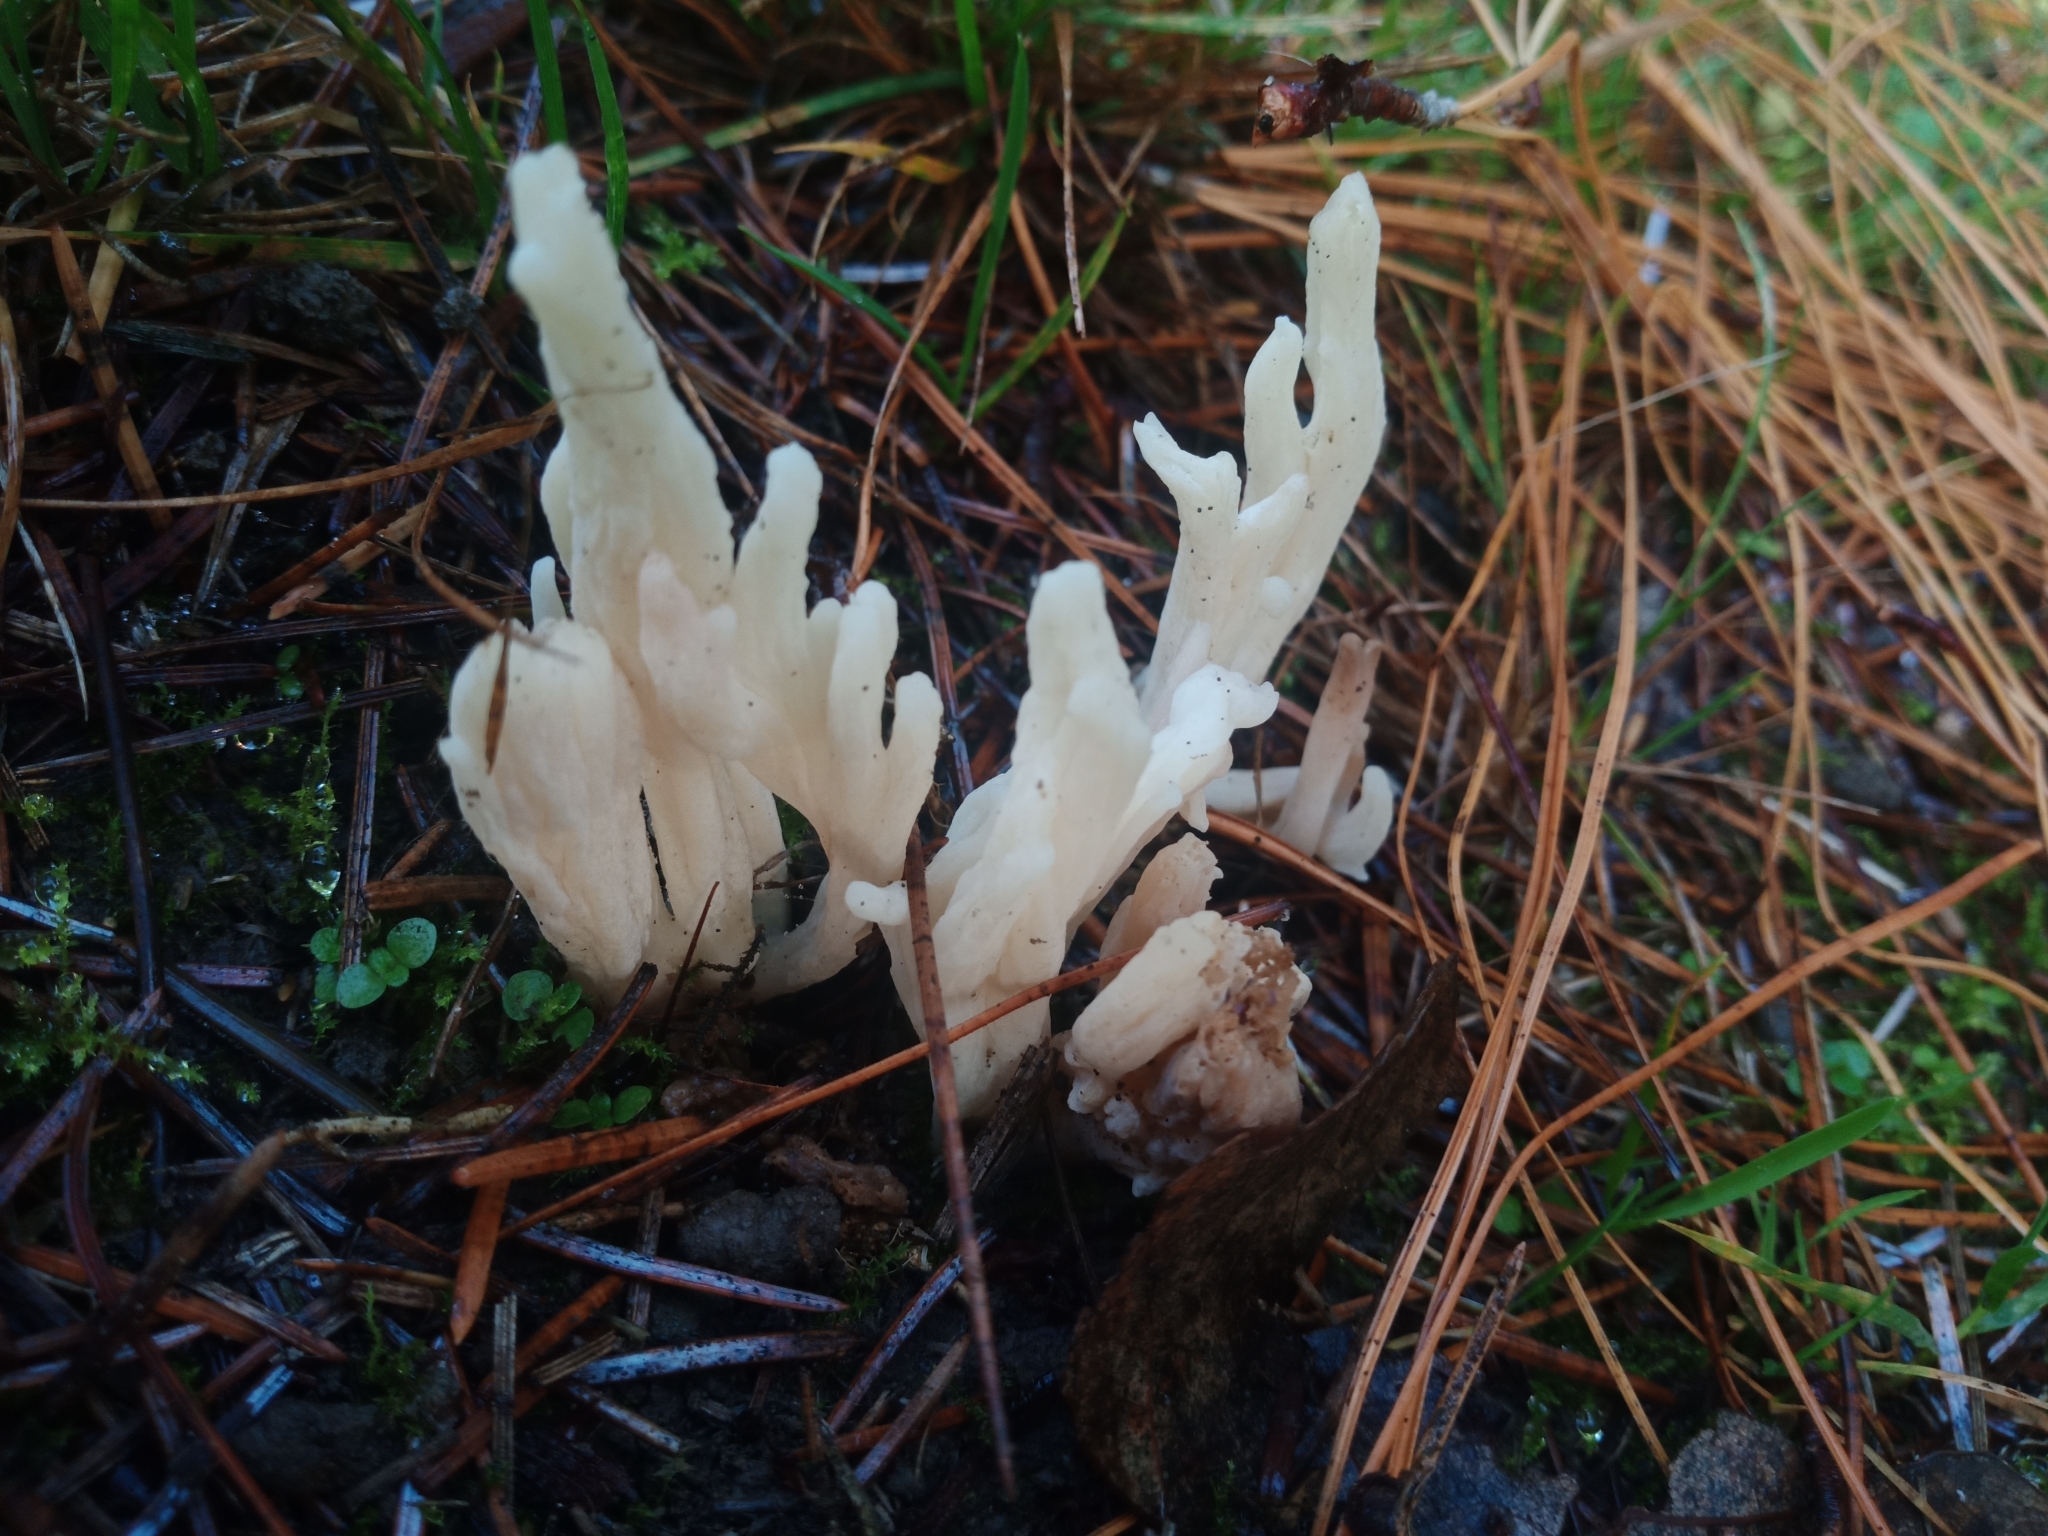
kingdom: Fungi
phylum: Basidiomycota
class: Agaricomycetes
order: Cantharellales
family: Hydnaceae
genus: Clavulina
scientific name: Clavulina rugosa
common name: Wrinkled club
